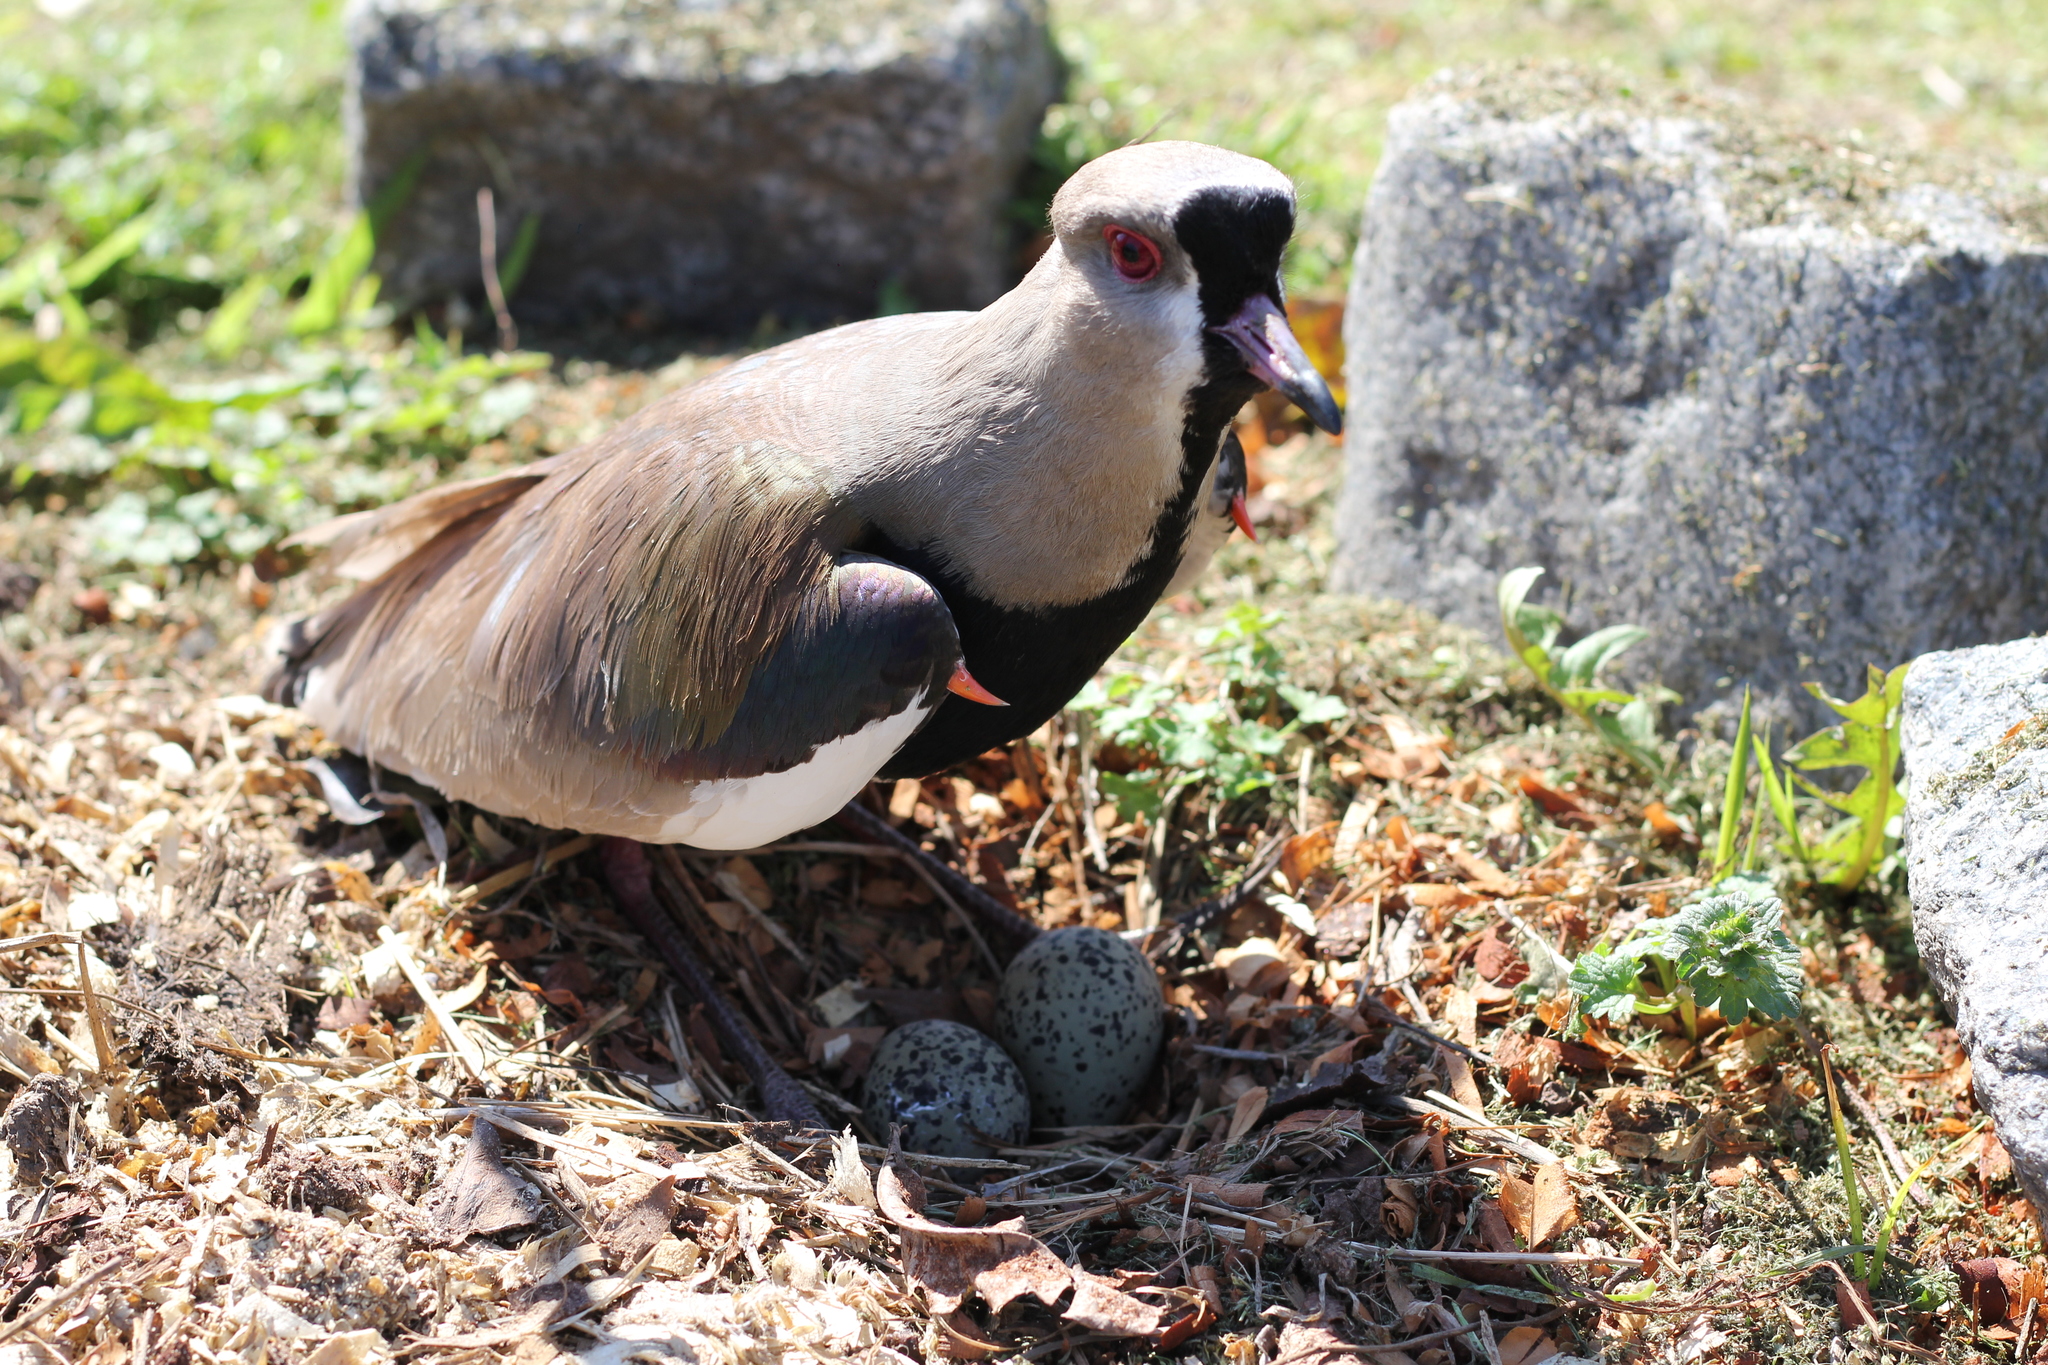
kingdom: Animalia
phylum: Chordata
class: Aves
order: Charadriiformes
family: Charadriidae
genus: Vanellus
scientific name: Vanellus chilensis
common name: Southern lapwing
